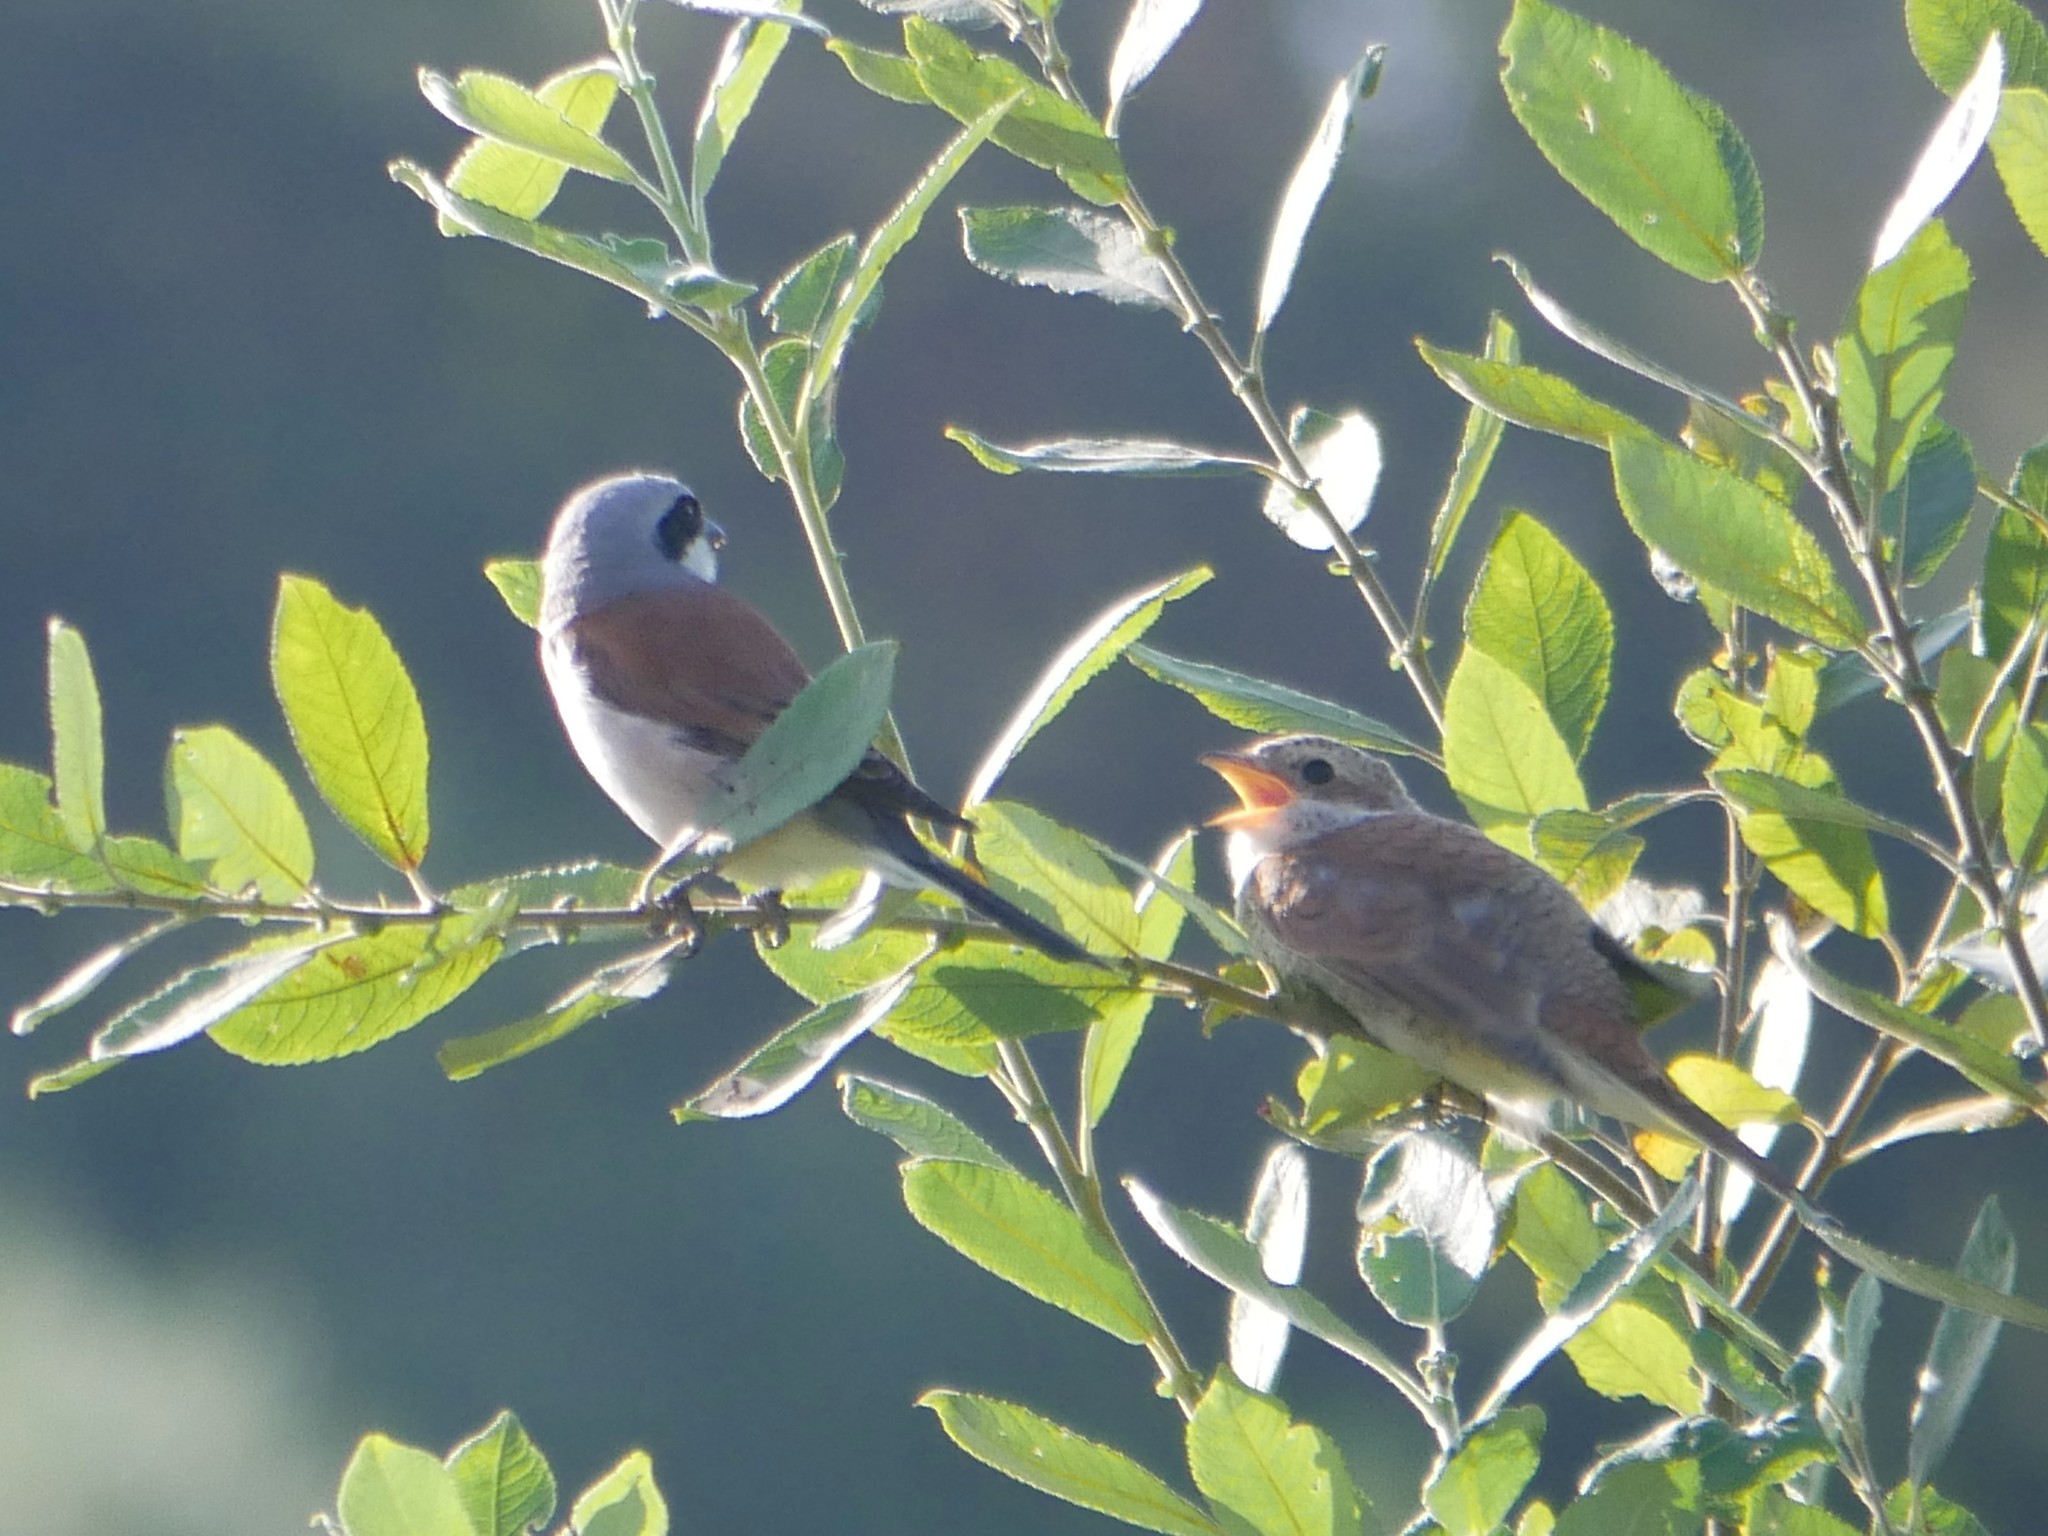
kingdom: Animalia
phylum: Chordata
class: Aves
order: Passeriformes
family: Laniidae
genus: Lanius
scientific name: Lanius collurio
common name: Red-backed shrike
